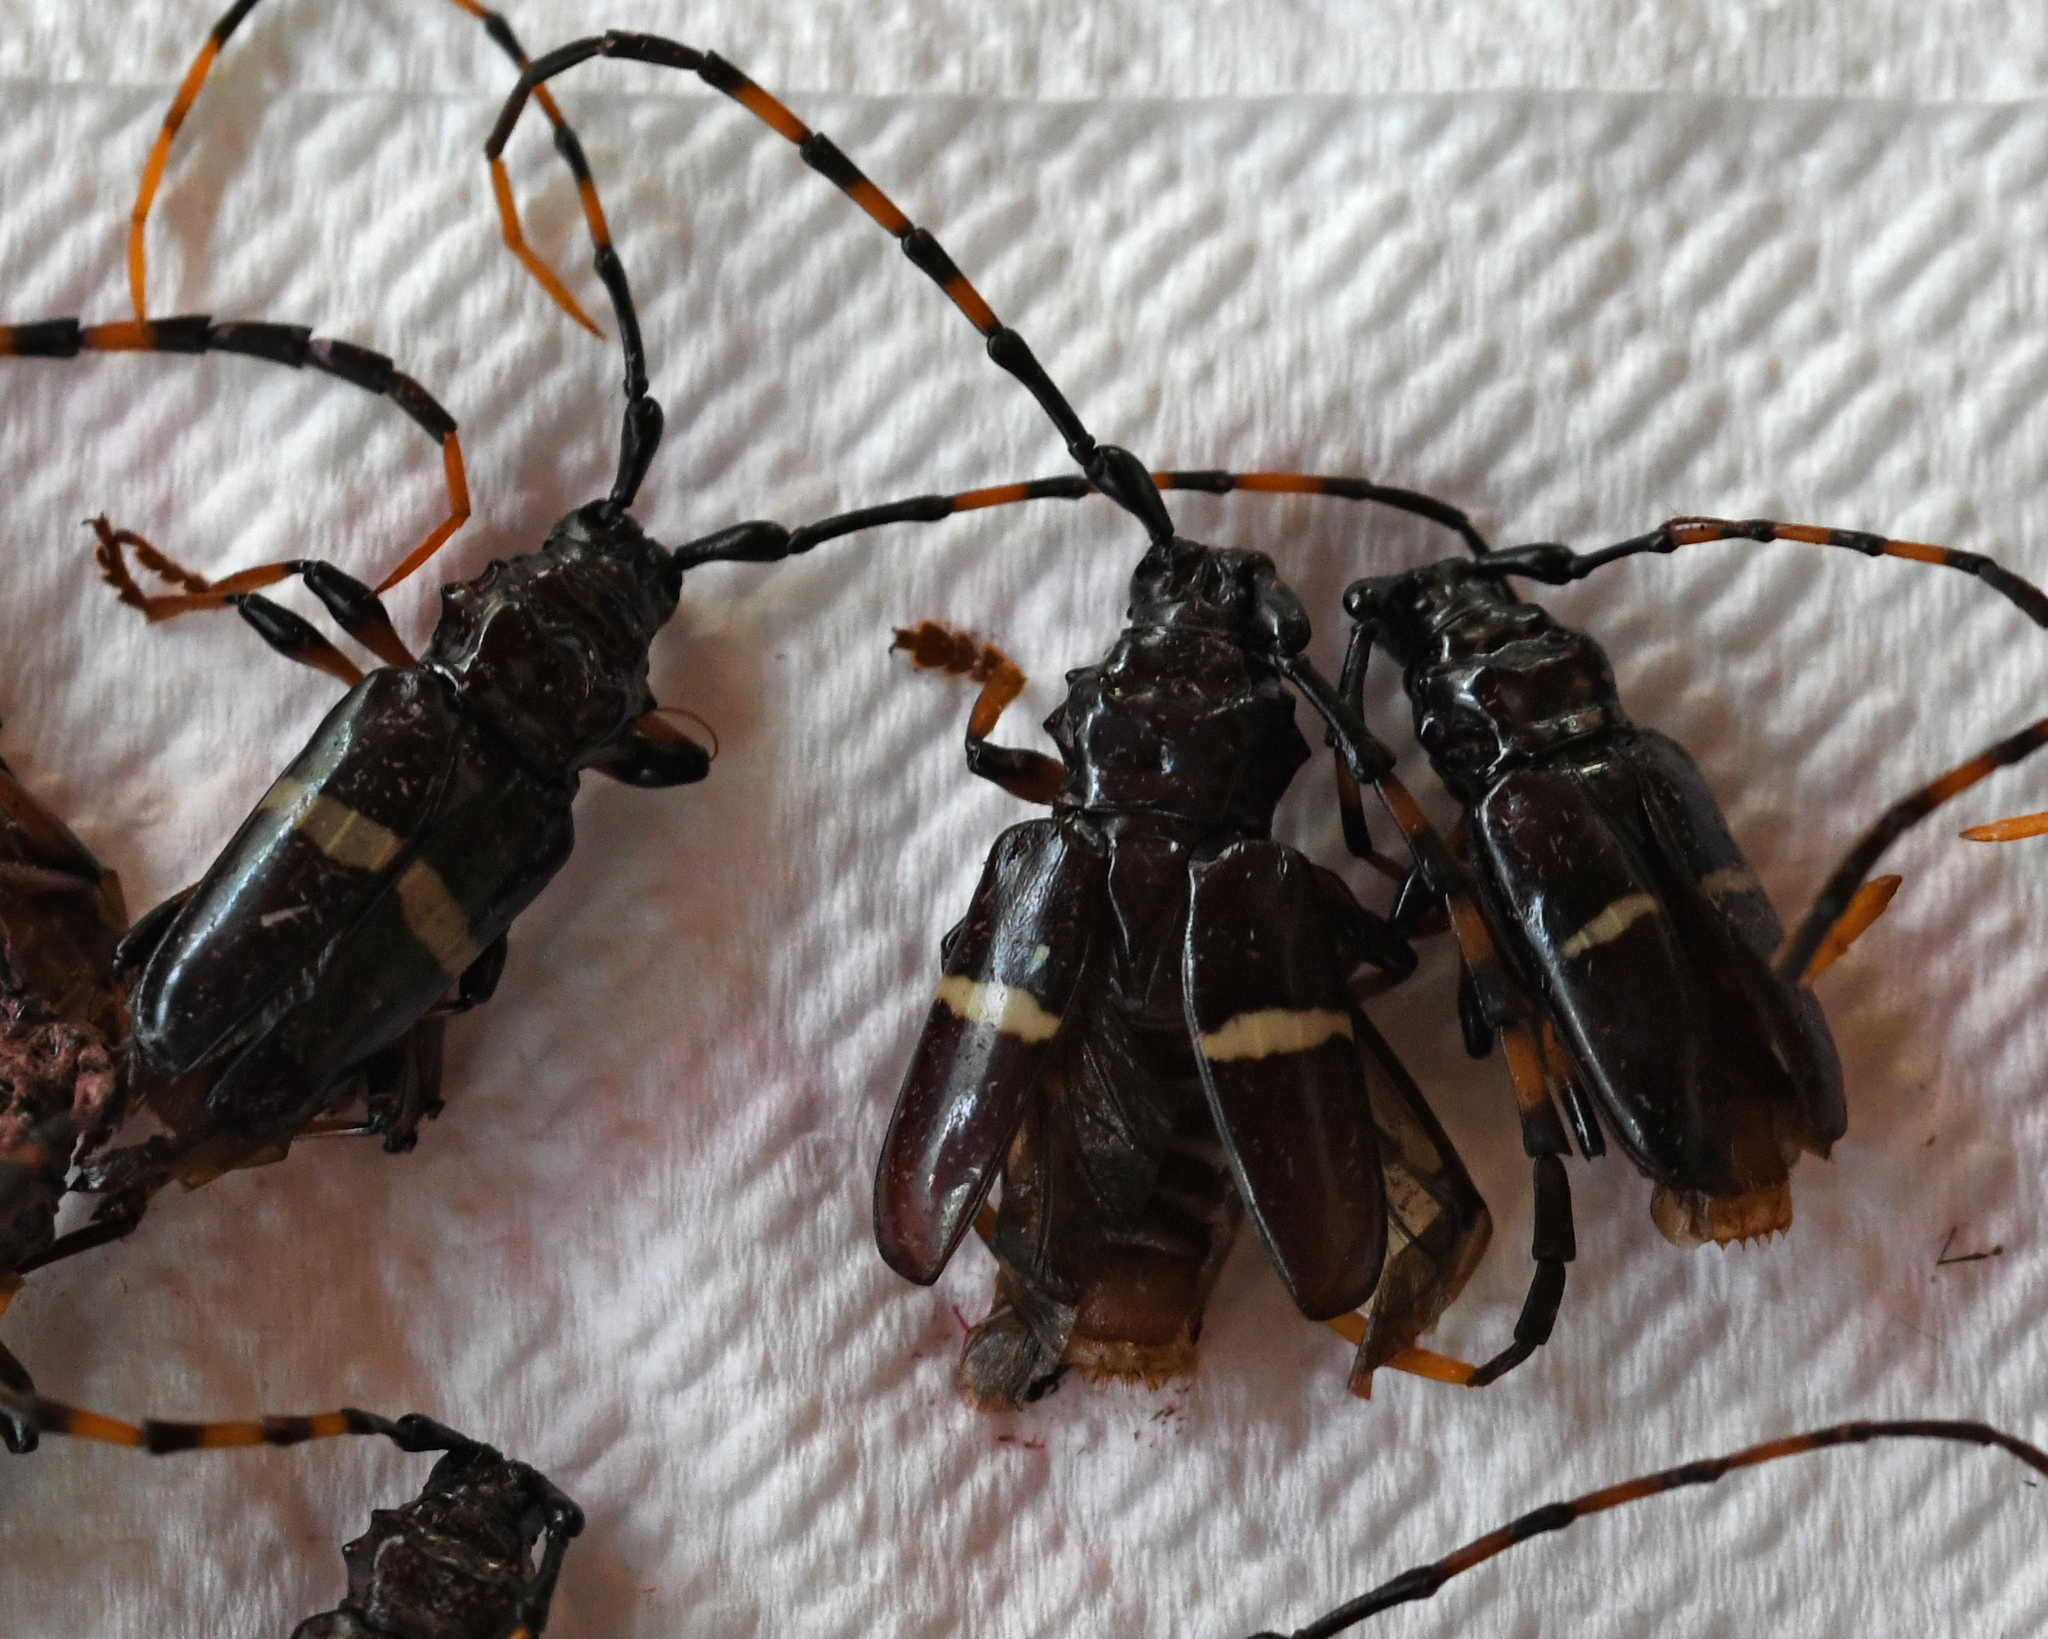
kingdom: Animalia
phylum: Arthropoda
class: Insecta
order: Coleoptera
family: Cerambycidae
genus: Trachyderes
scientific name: Trachyderes succinctus
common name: Mango longhorn
